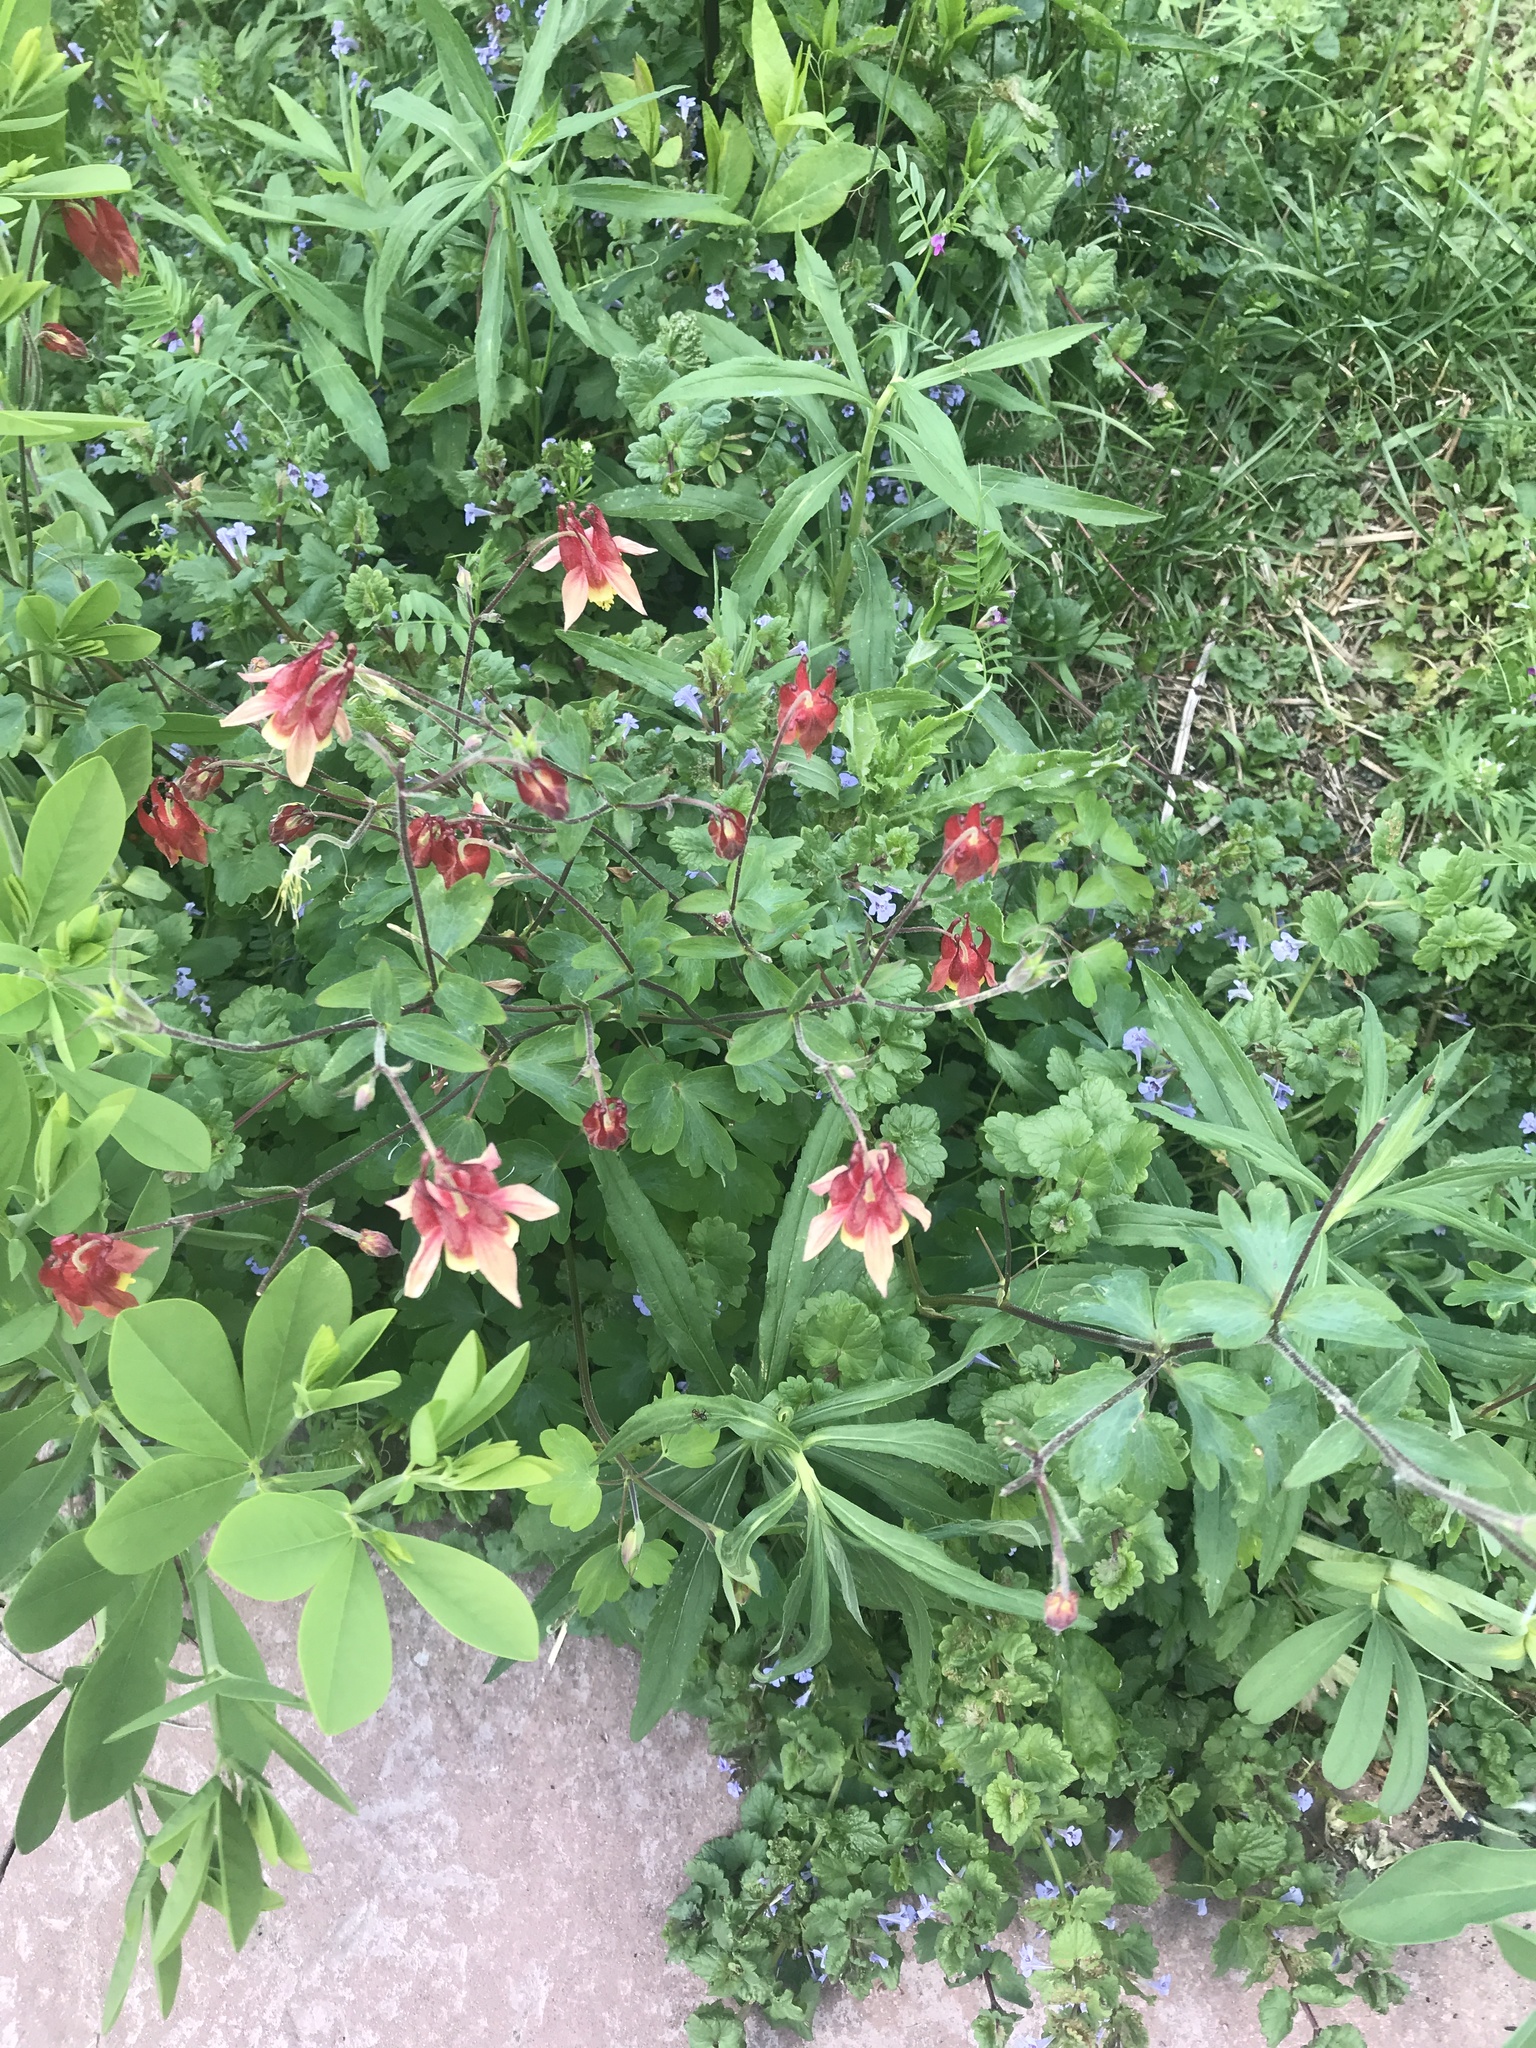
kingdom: Plantae
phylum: Tracheophyta
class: Magnoliopsida
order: Ranunculales
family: Ranunculaceae
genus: Aquilegia
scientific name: Aquilegia canadensis
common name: American columbine
